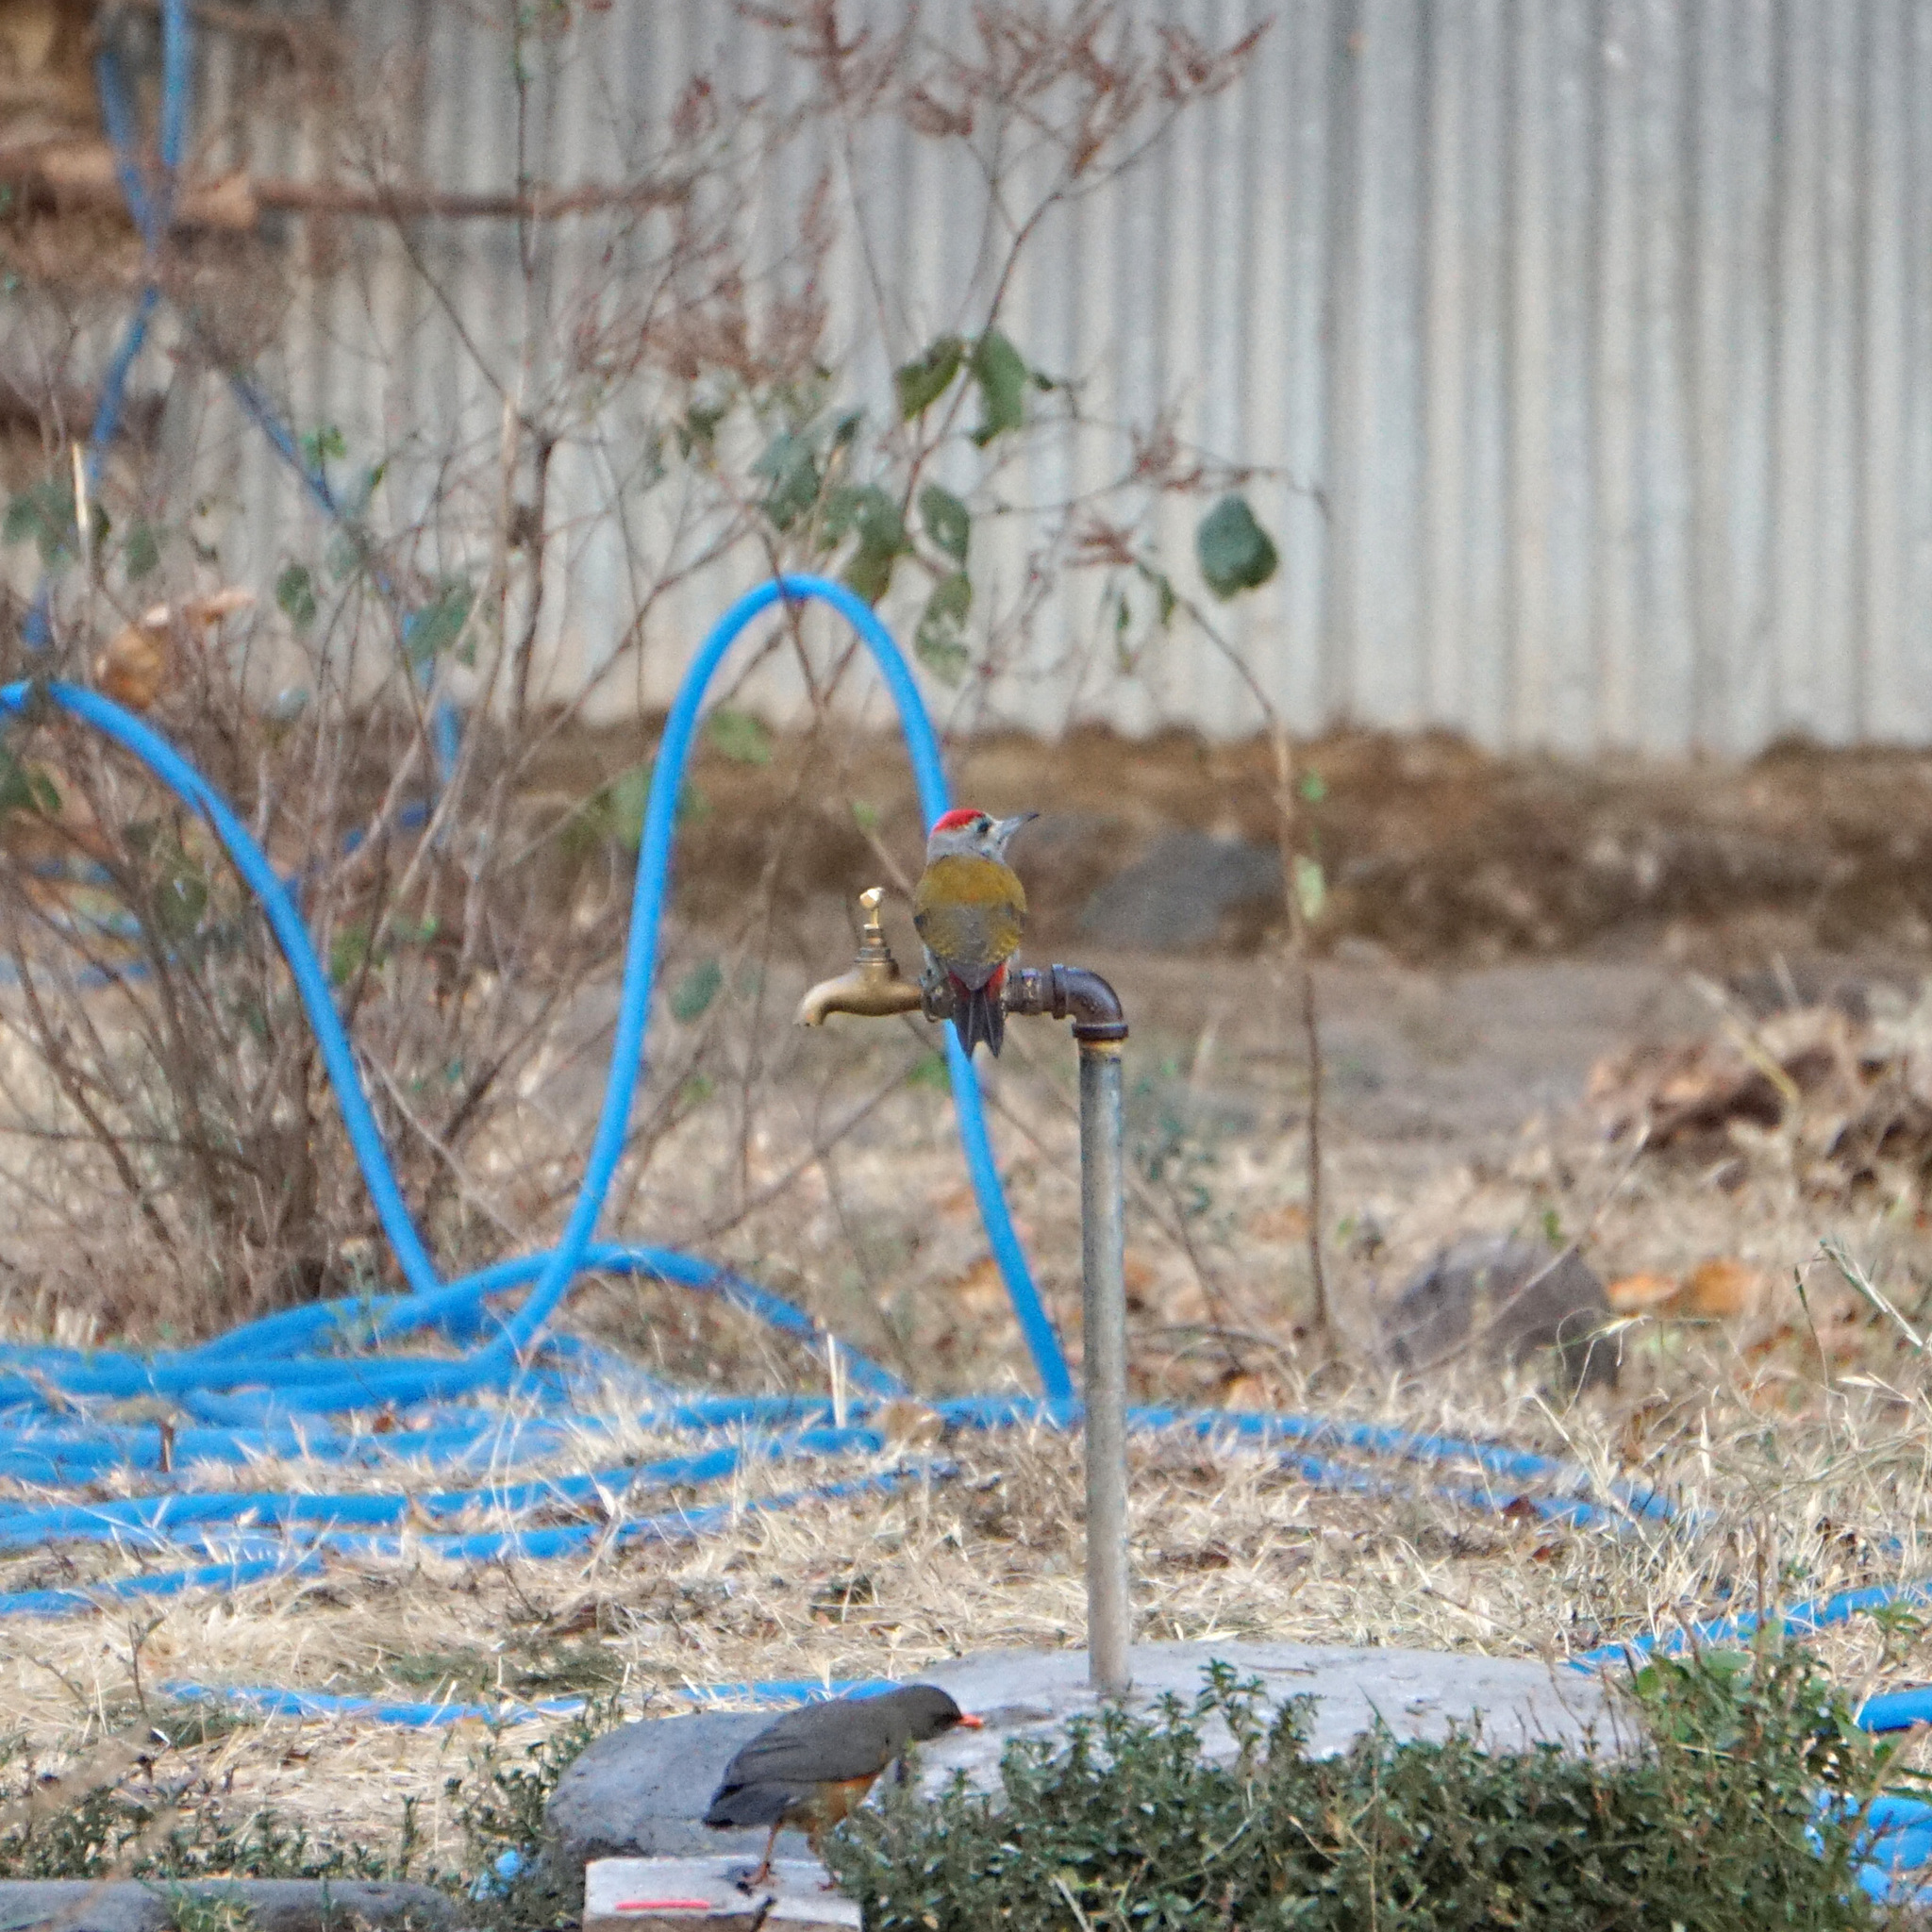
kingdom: Animalia
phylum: Chordata
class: Aves
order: Piciformes
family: Picidae
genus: Dendropicos
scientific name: Dendropicos goertae
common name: African grey woodpecker
